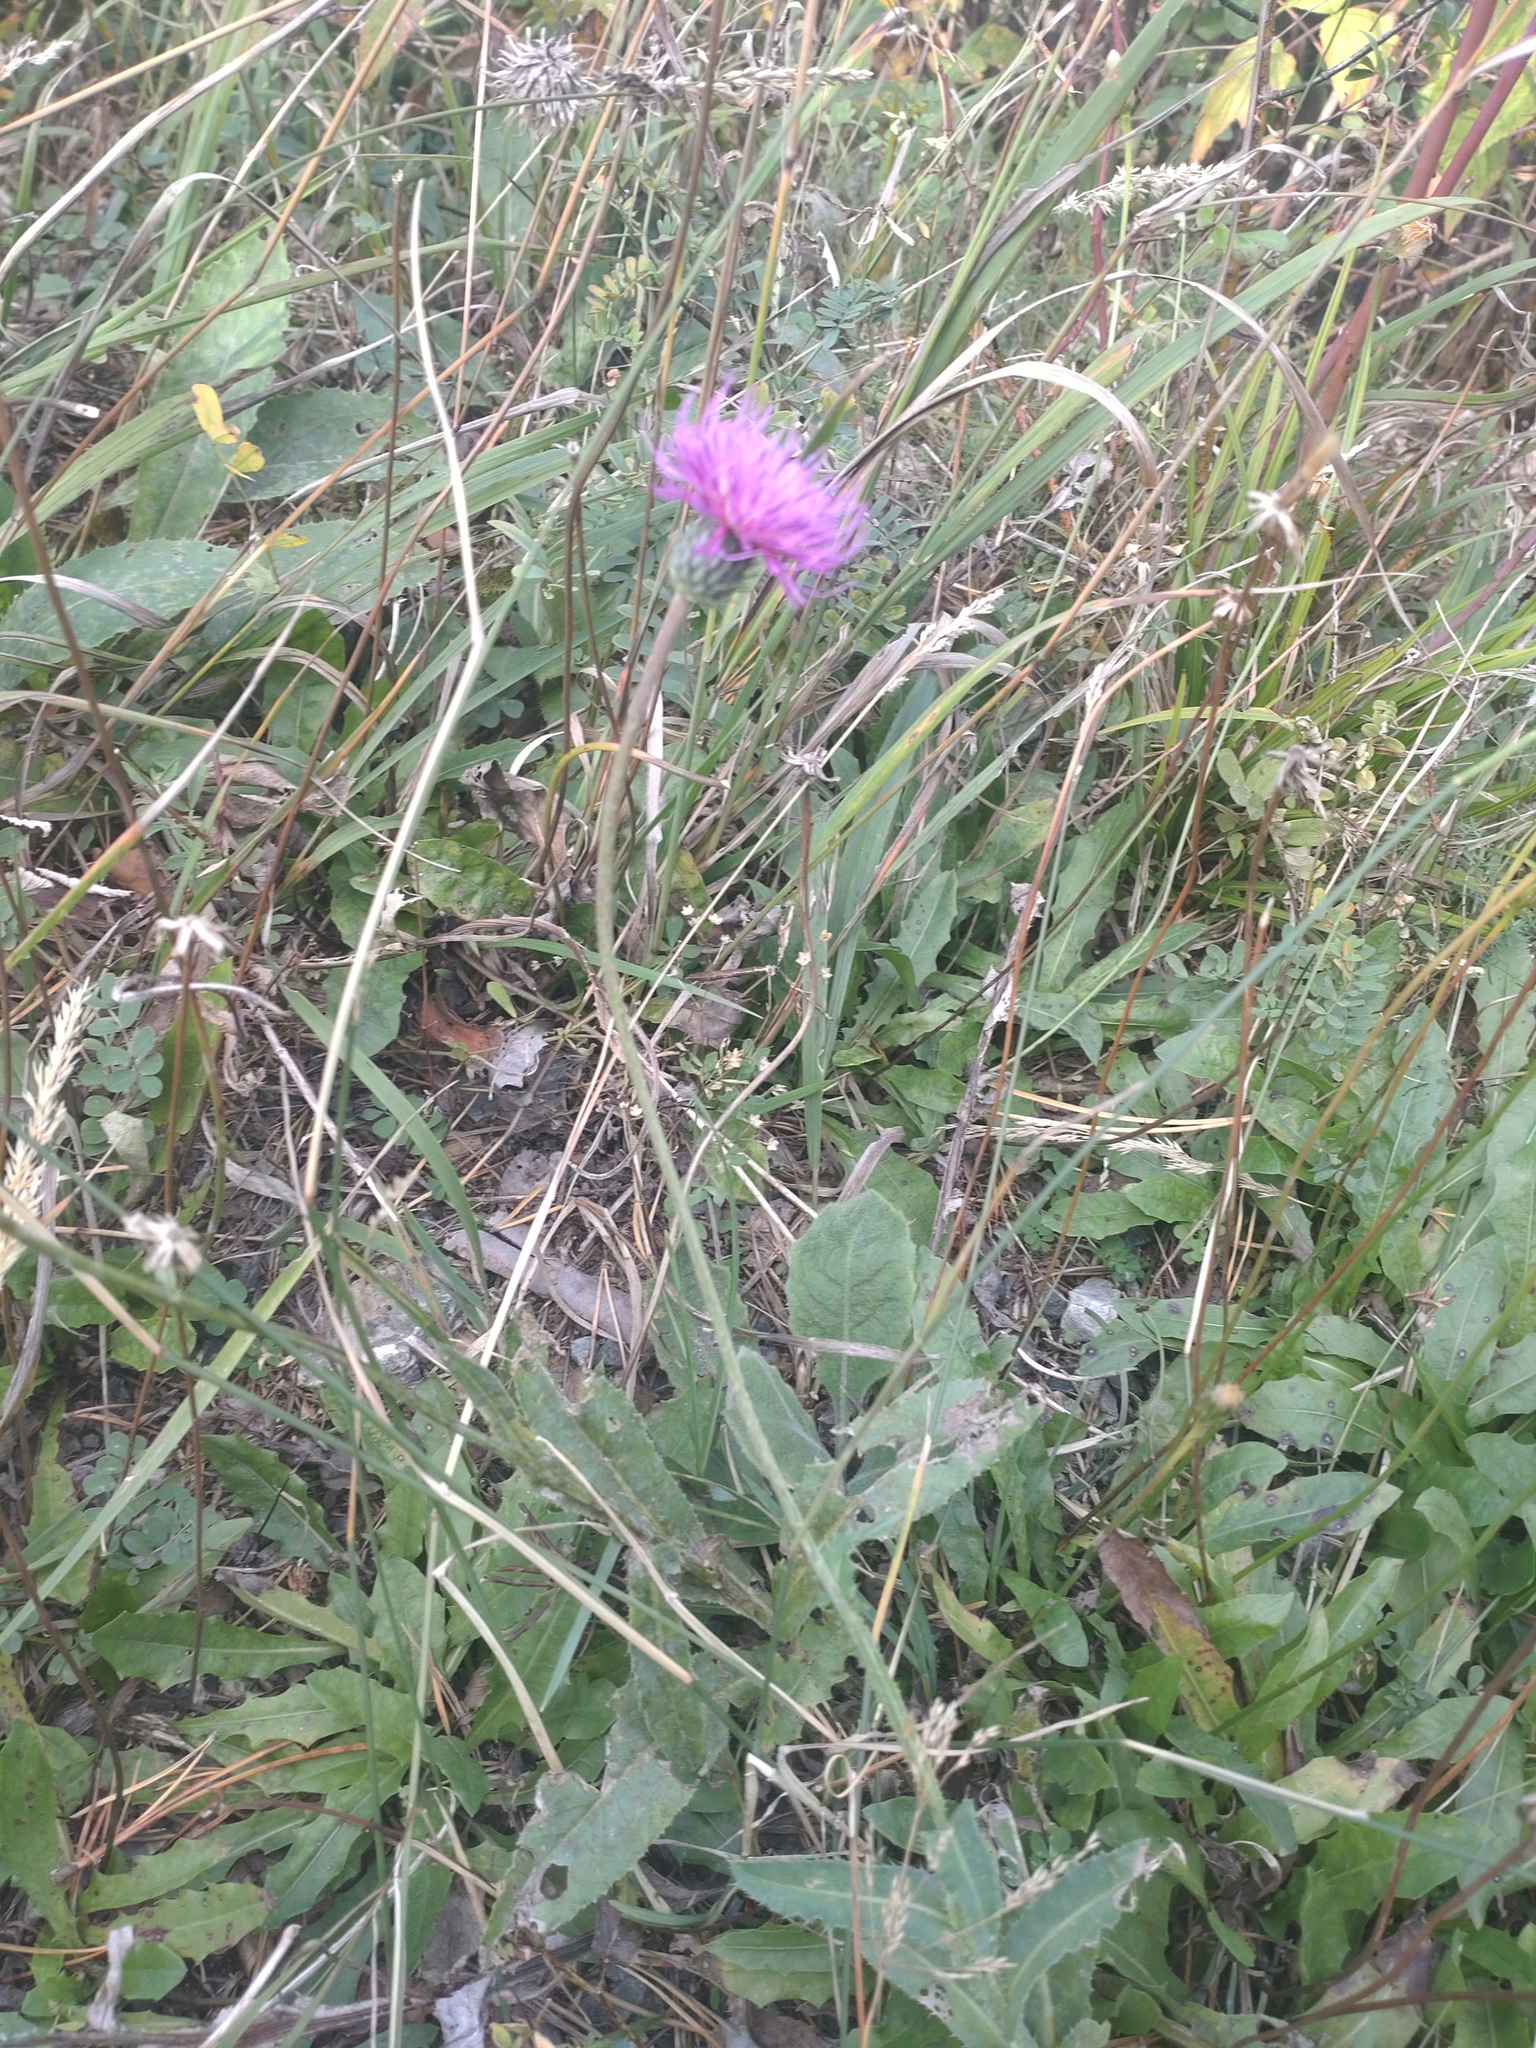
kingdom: Plantae
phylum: Tracheophyta
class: Magnoliopsida
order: Asterales
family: Asteraceae
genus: Carduus
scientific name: Carduus defloratus
